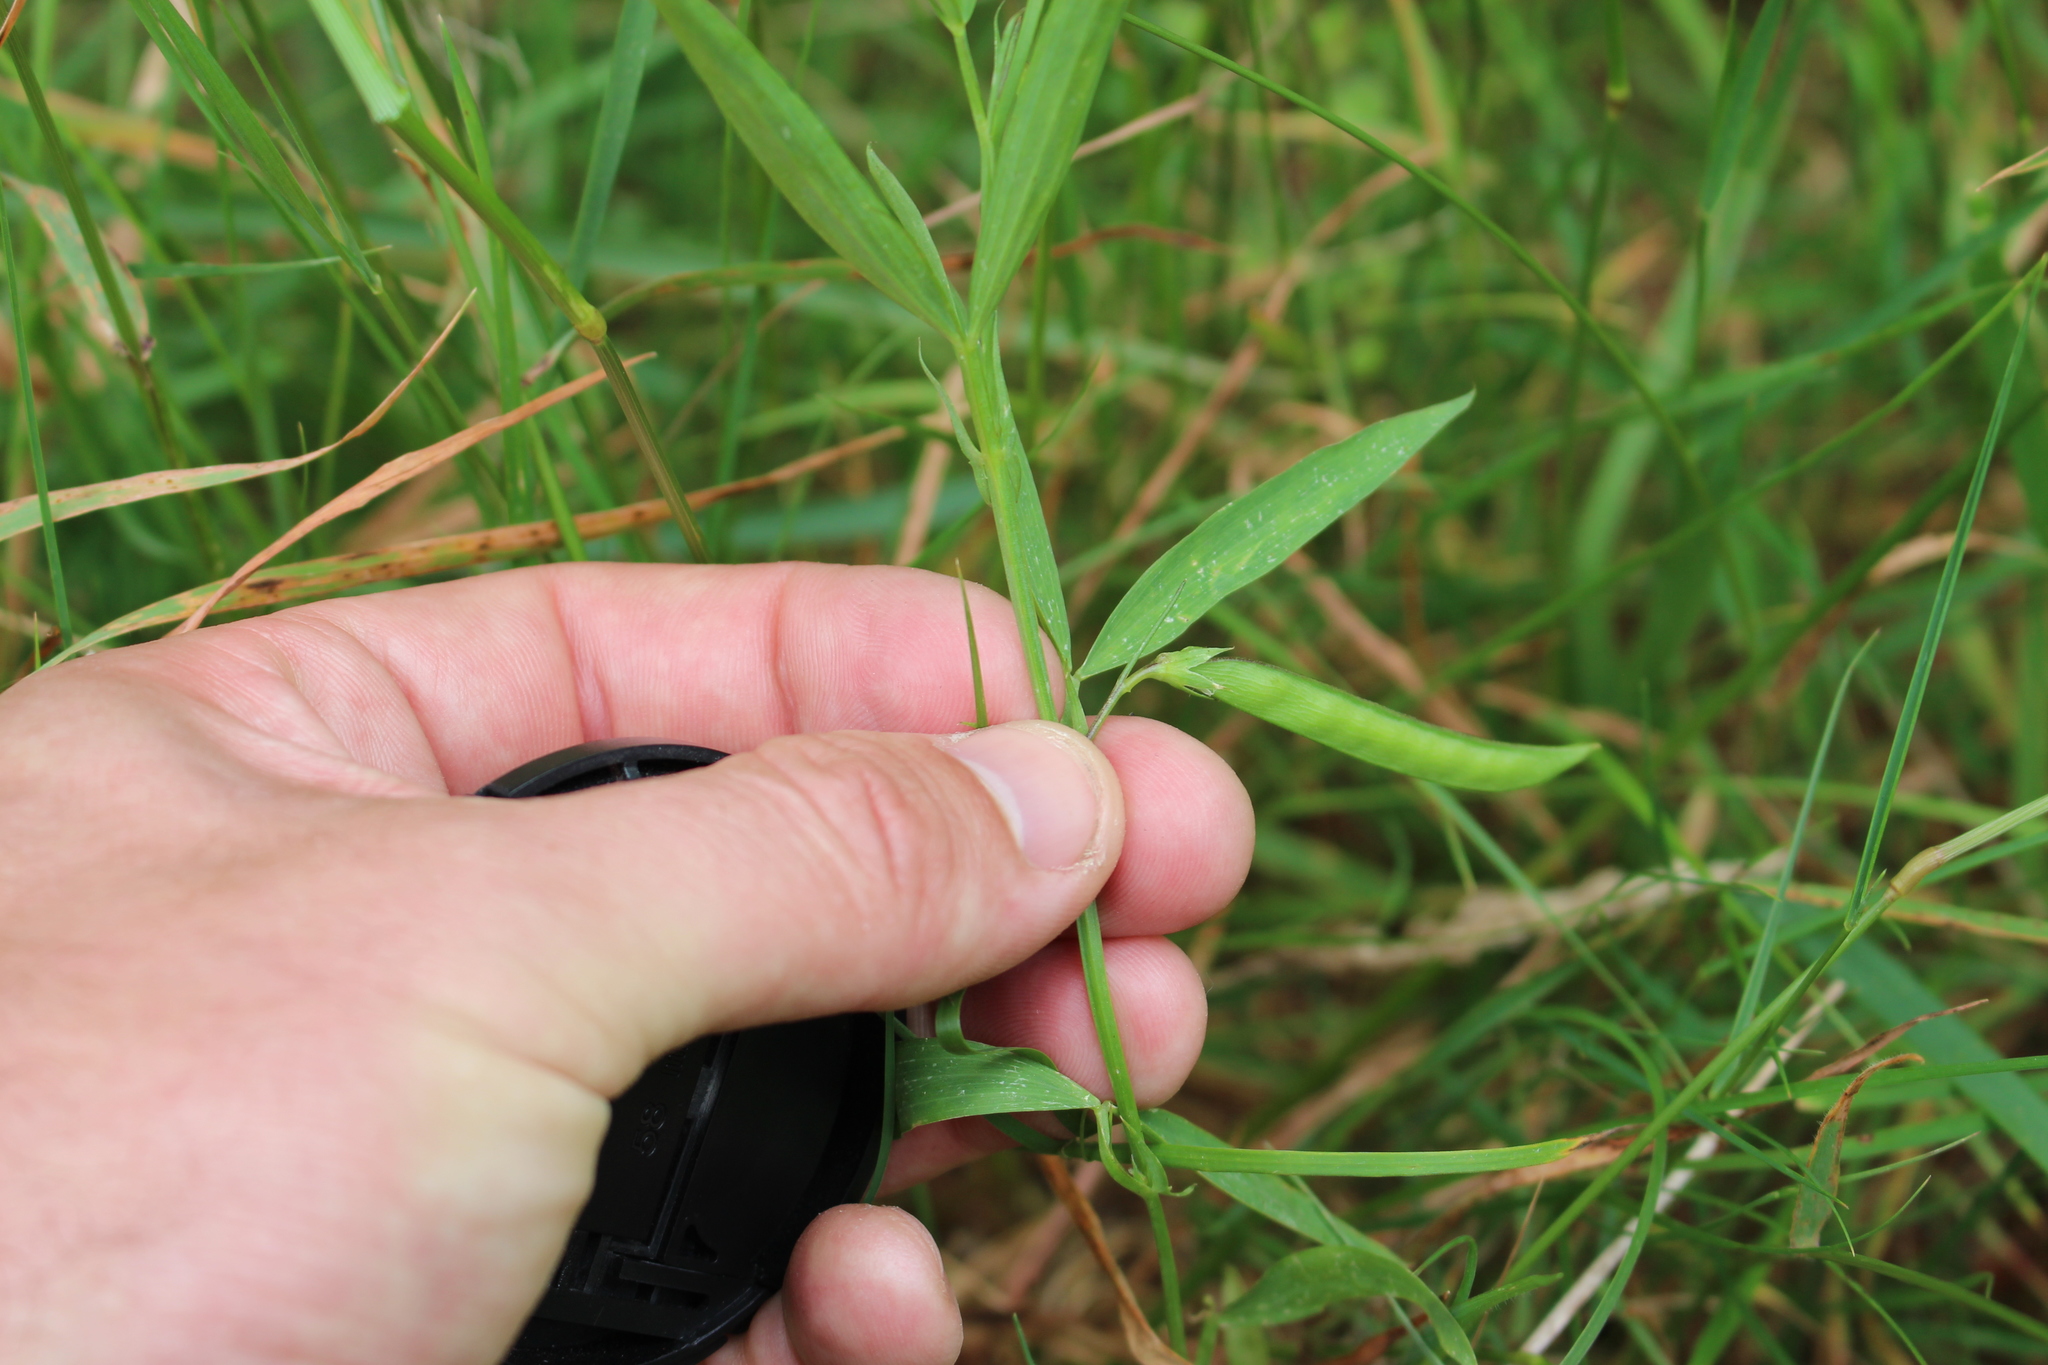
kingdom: Plantae
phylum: Tracheophyta
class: Magnoliopsida
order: Fabales
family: Fabaceae
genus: Lathyrus
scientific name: Lathyrus sphaericus
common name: Grass pea
